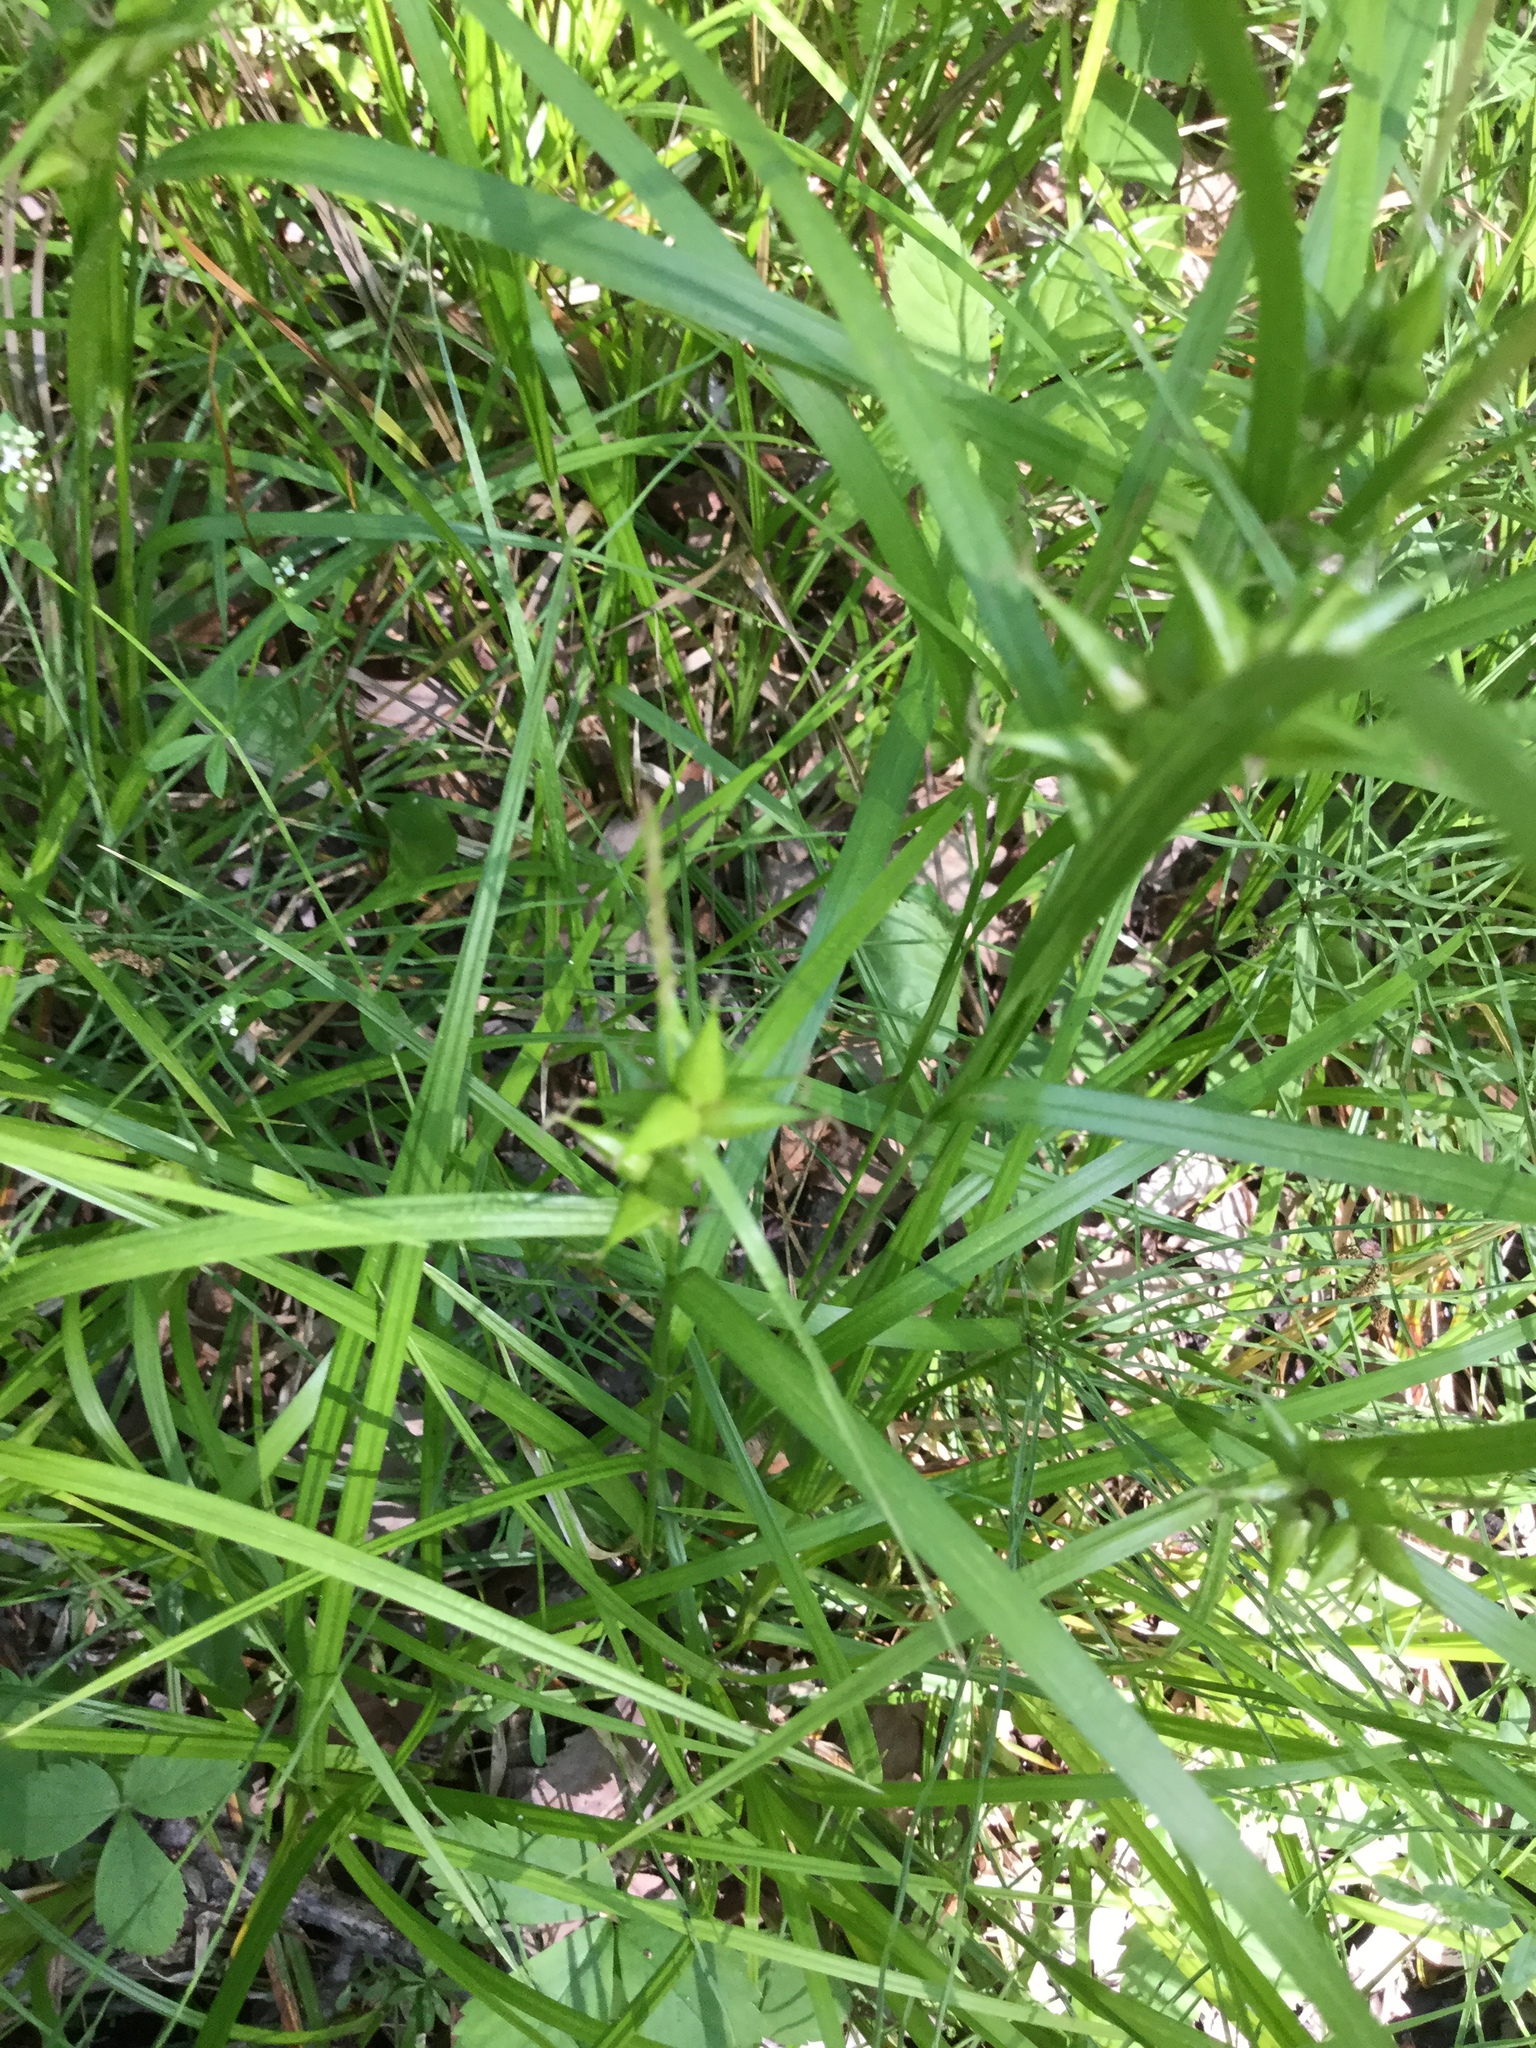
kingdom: Plantae
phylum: Tracheophyta
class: Liliopsida
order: Poales
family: Cyperaceae
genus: Carex
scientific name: Carex intumescens
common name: Greater bladder sedge
